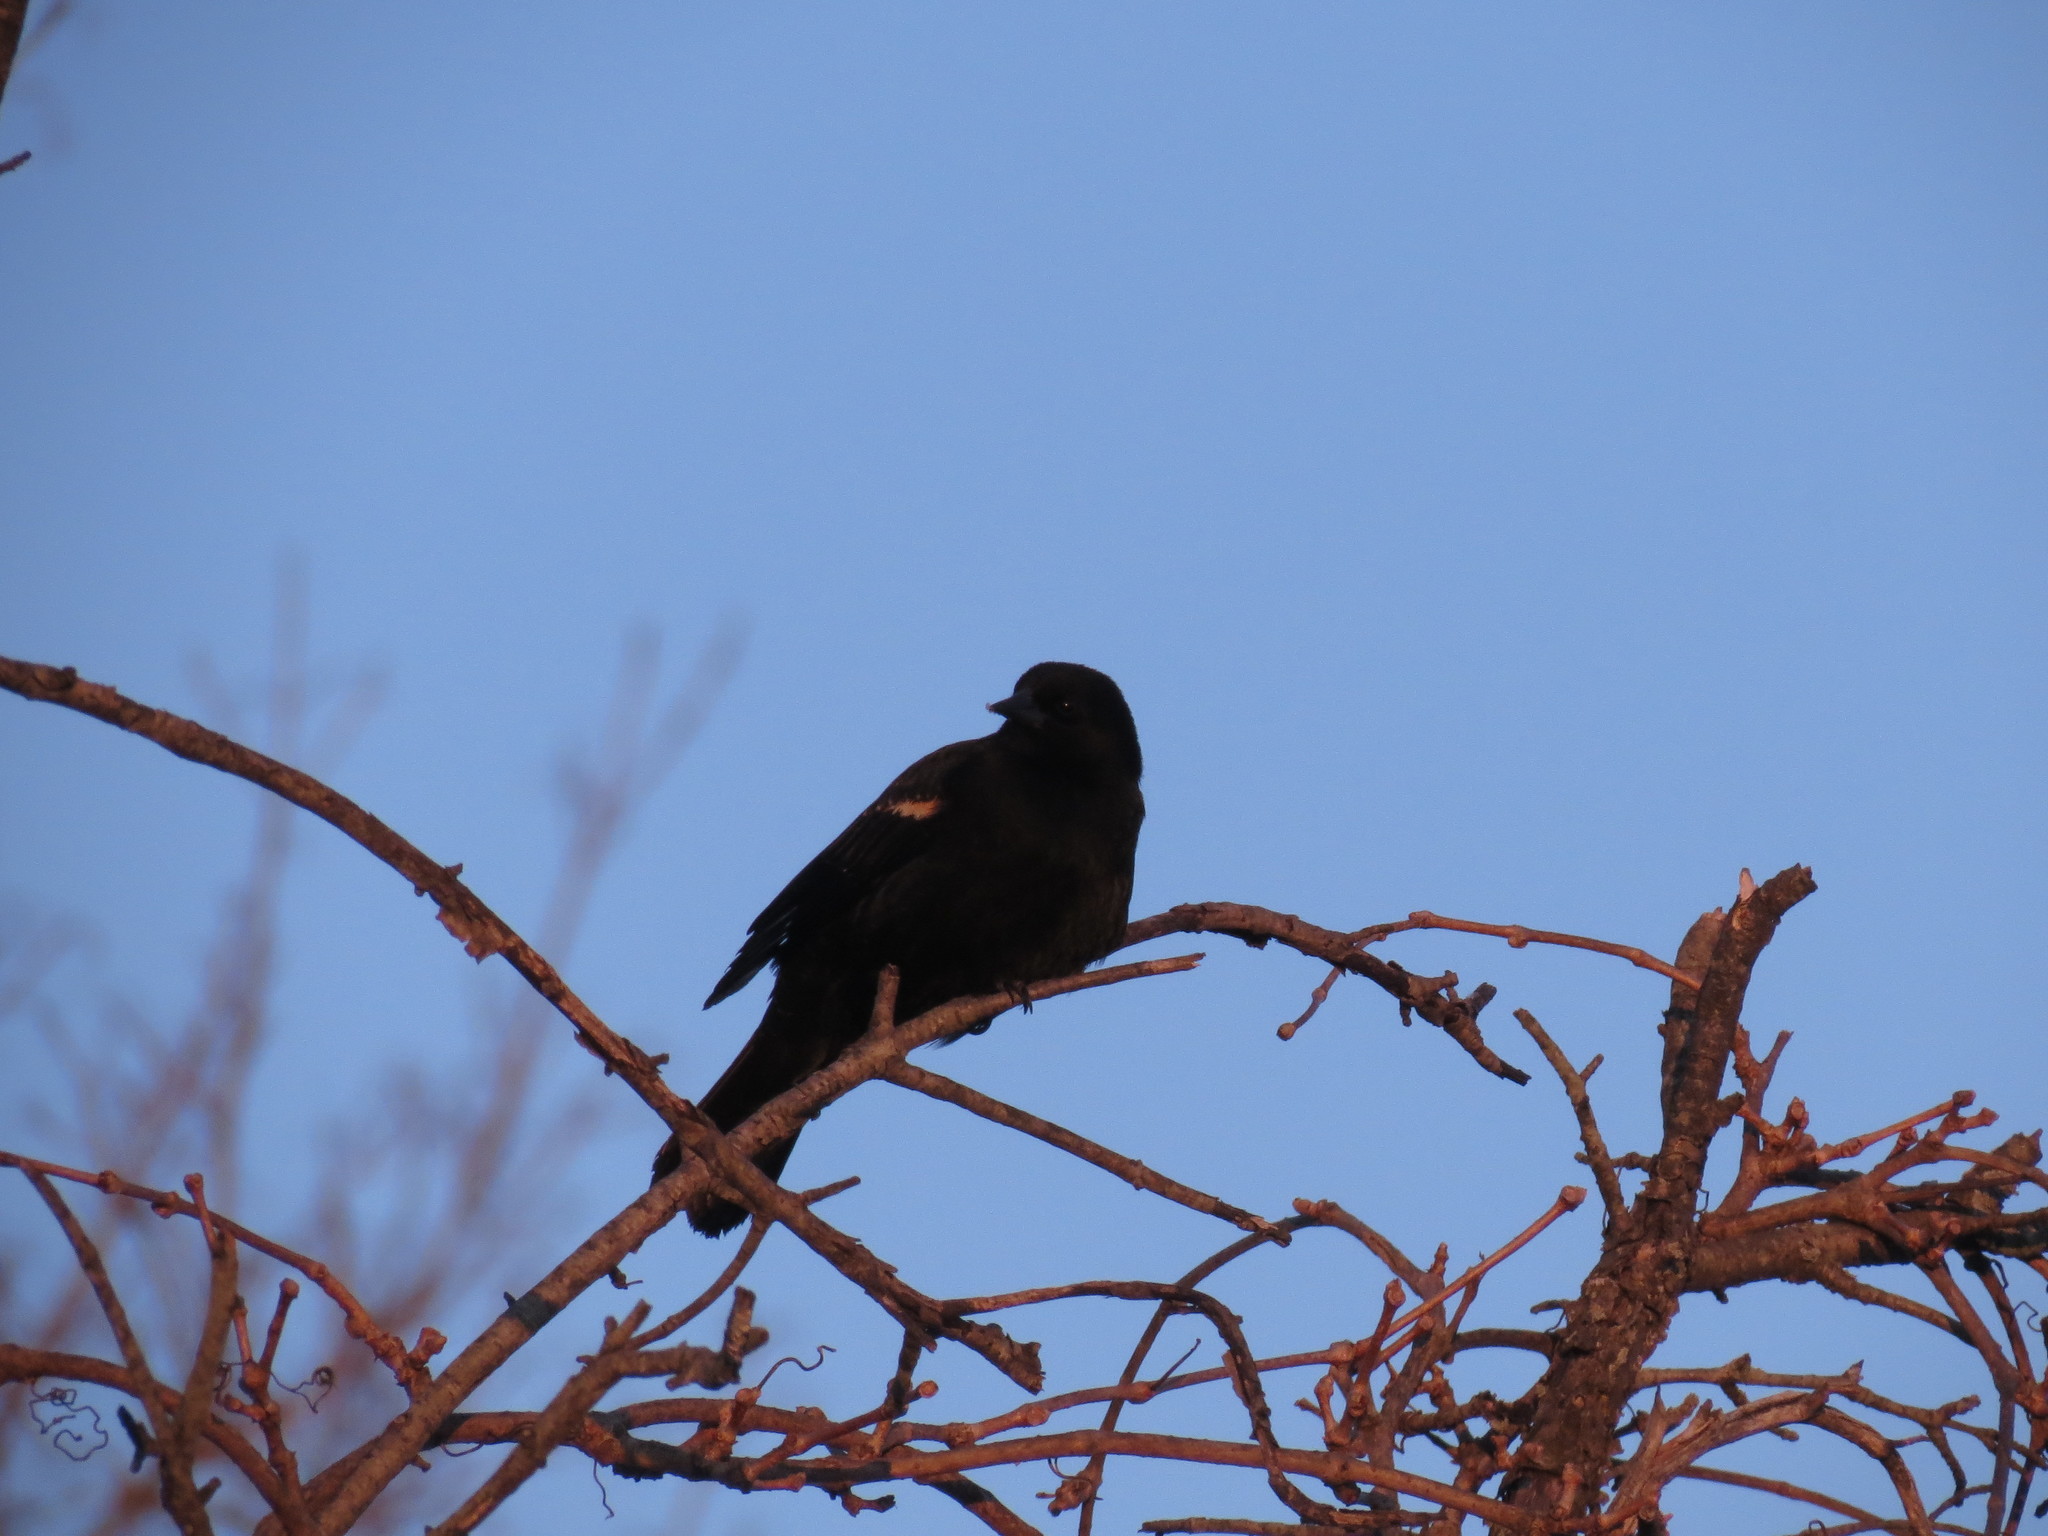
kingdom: Animalia
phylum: Chordata
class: Aves
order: Passeriformes
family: Icteridae
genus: Agelaius
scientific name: Agelaius phoeniceus
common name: Red-winged blackbird
